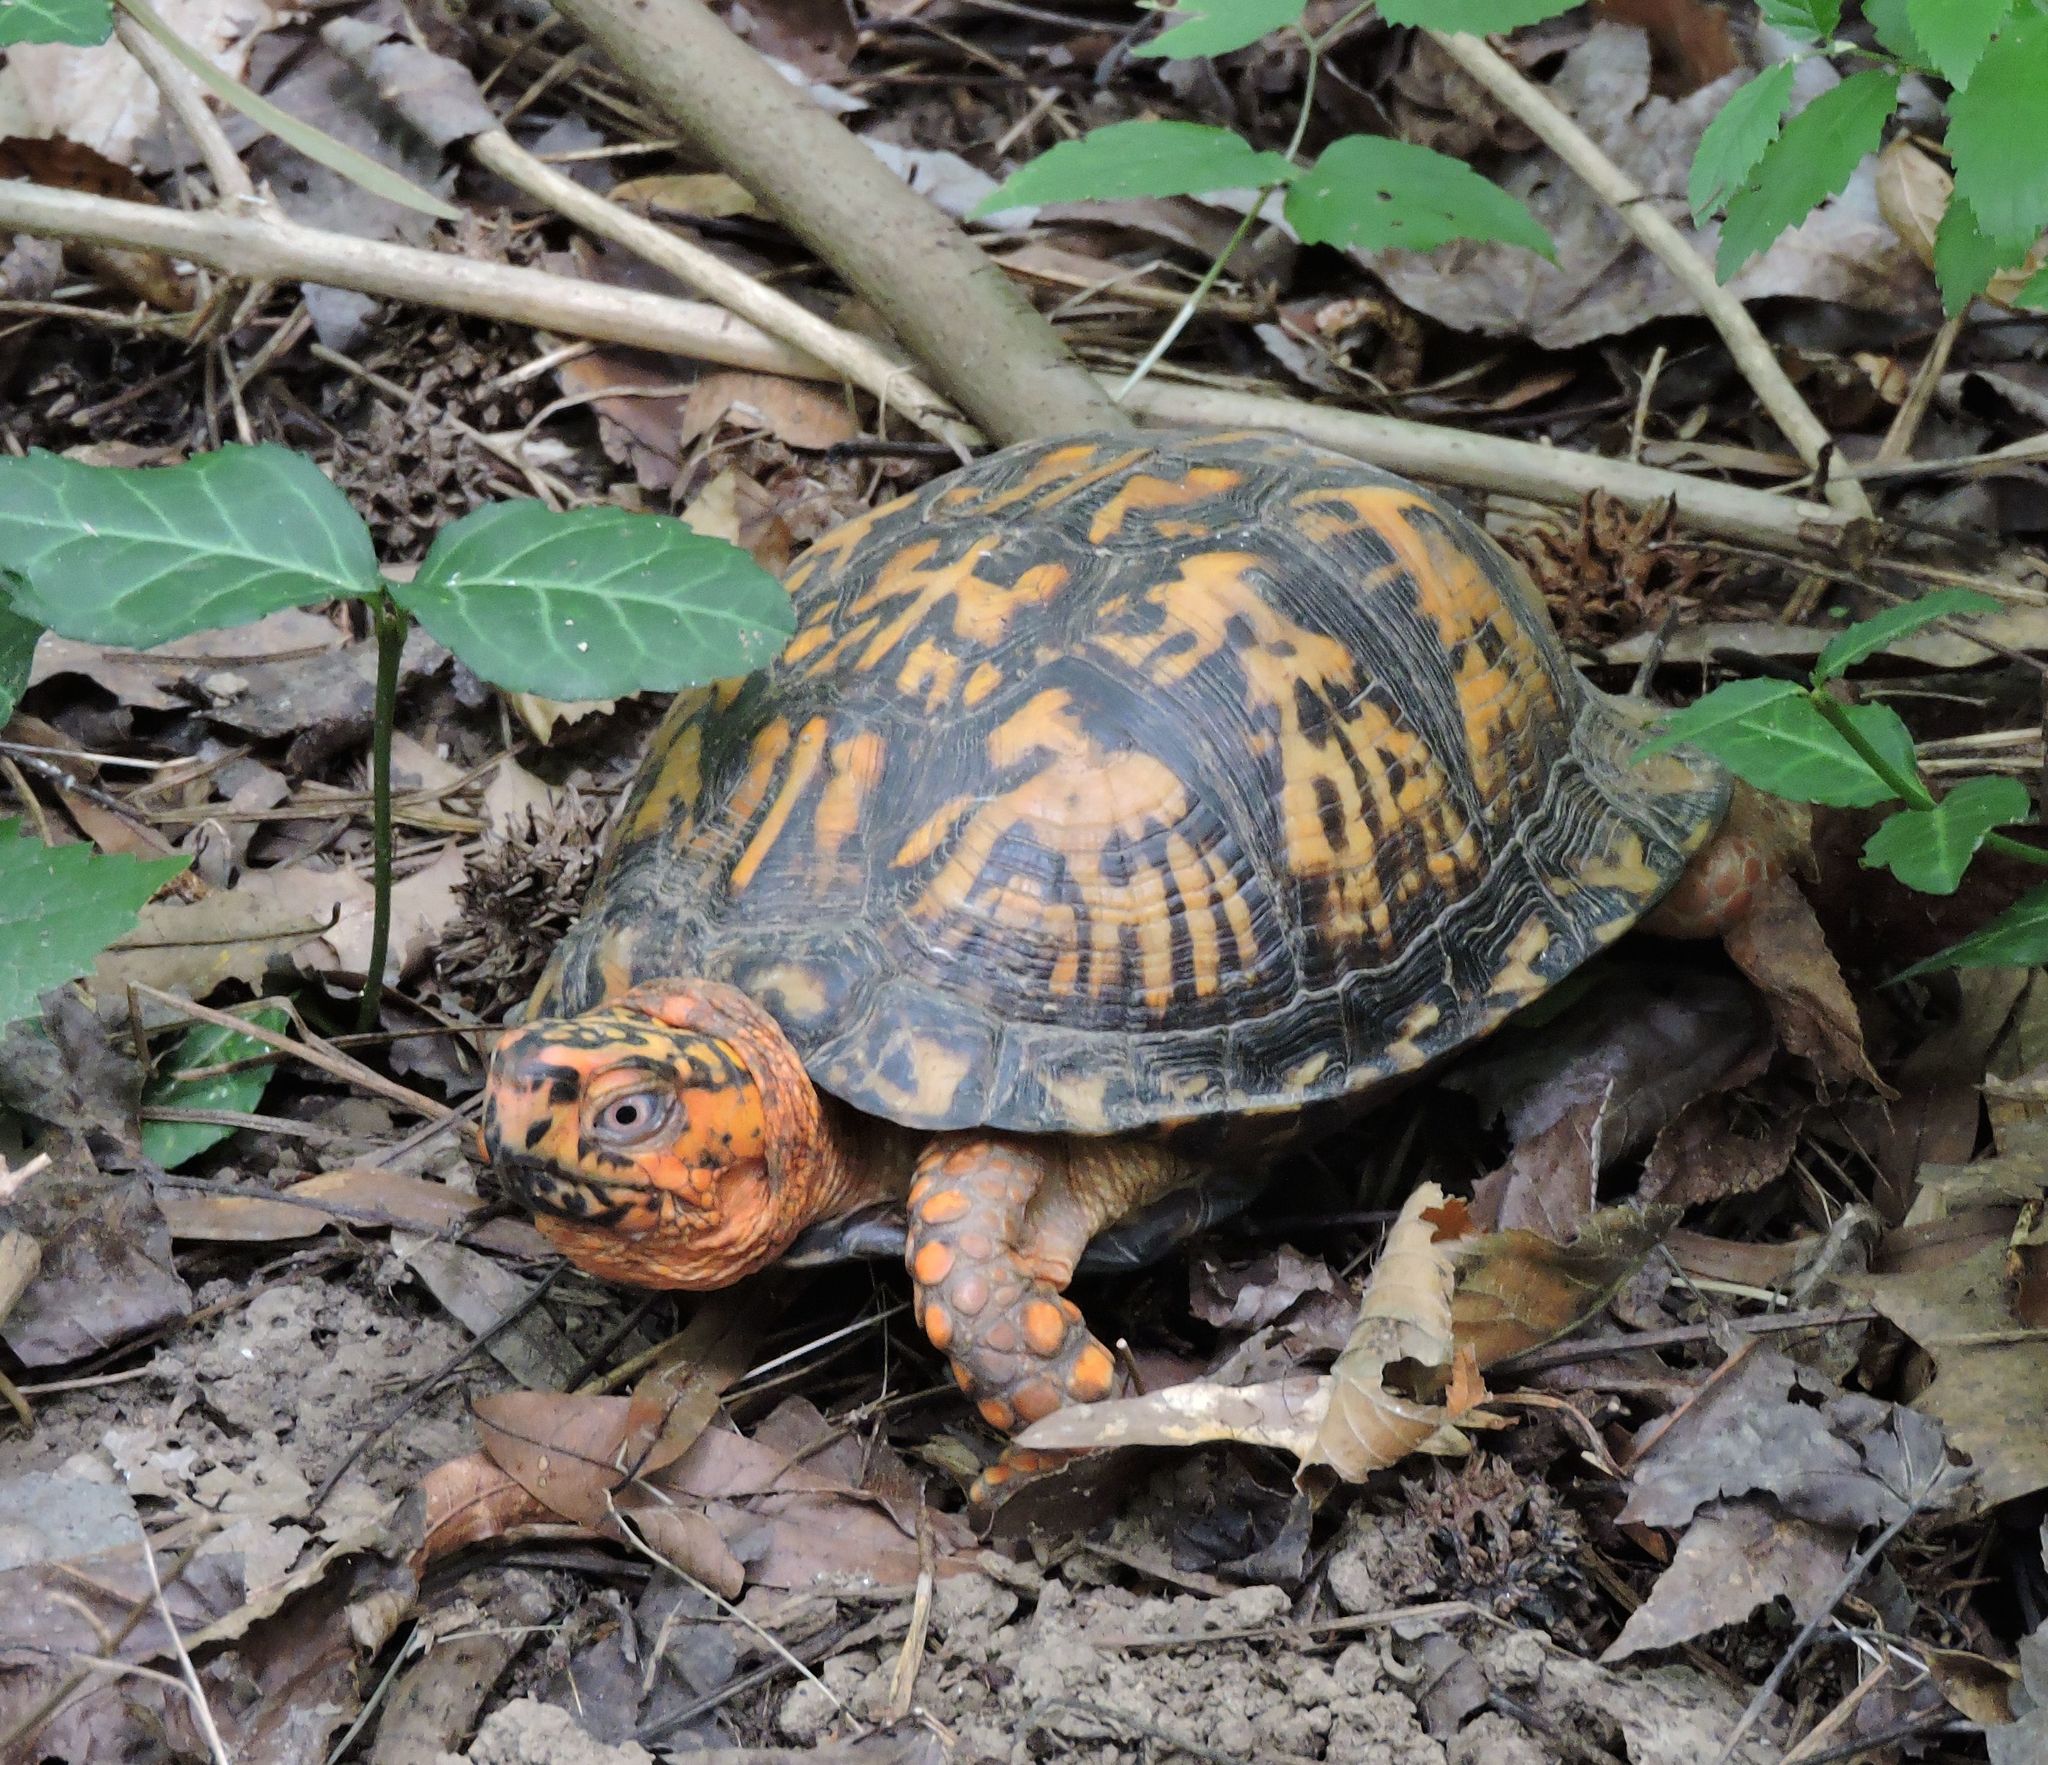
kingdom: Animalia
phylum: Chordata
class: Testudines
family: Emydidae
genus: Terrapene
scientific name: Terrapene carolina
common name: Common box turtle
